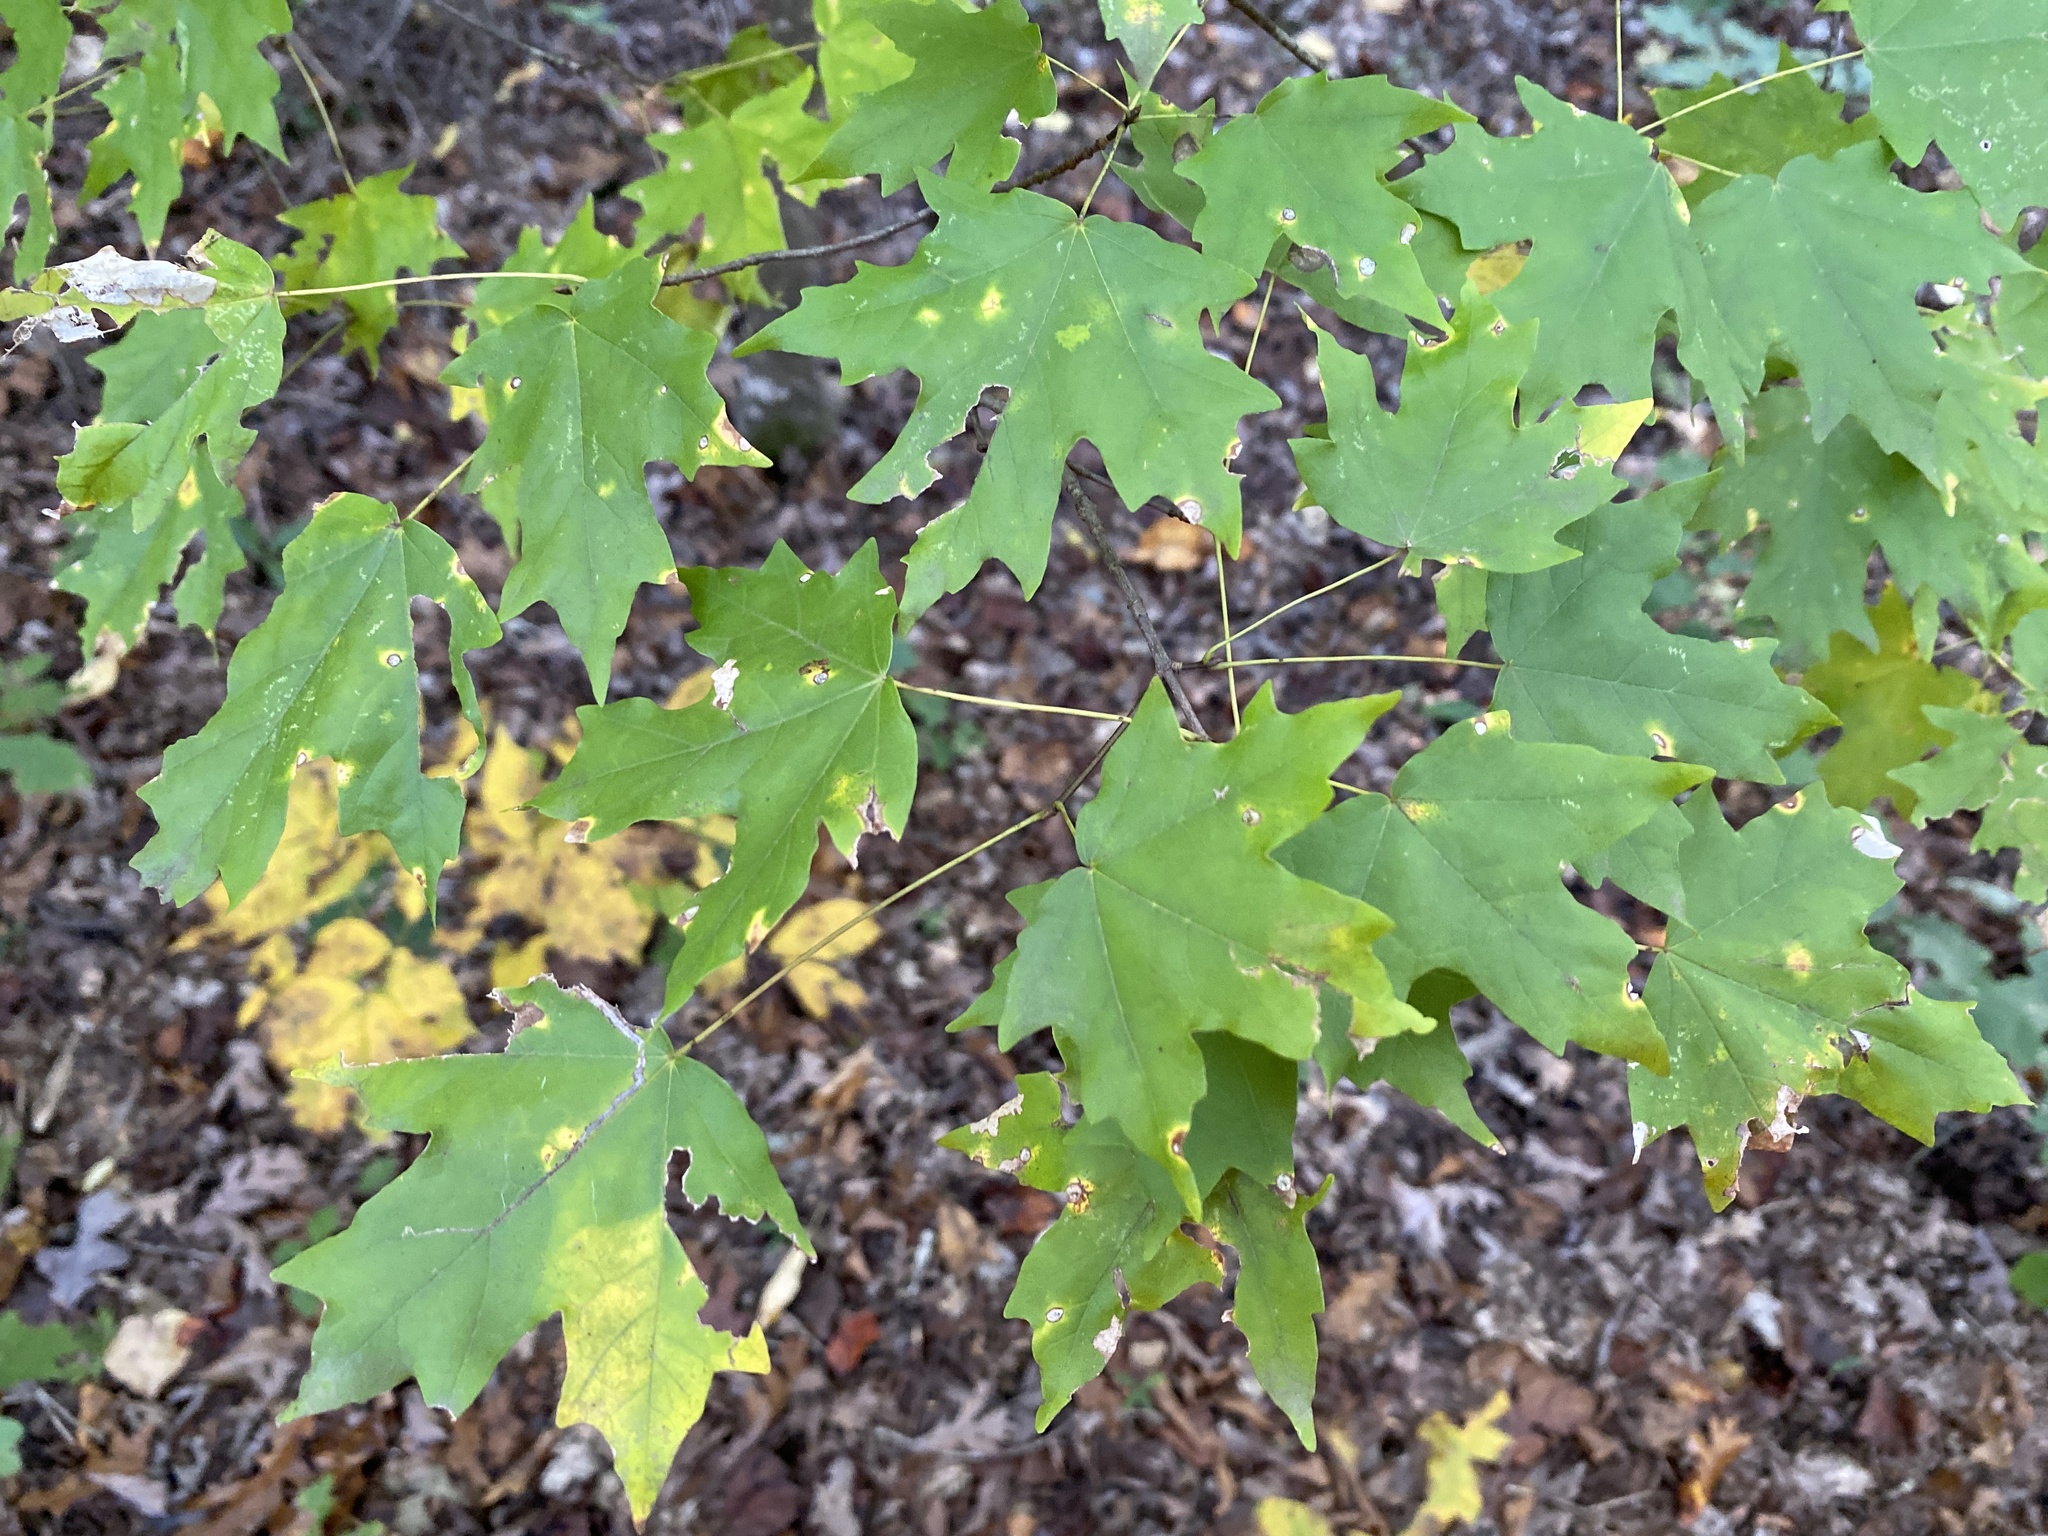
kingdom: Plantae
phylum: Tracheophyta
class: Magnoliopsida
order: Sapindales
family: Sapindaceae
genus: Acer
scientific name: Acer floridanum
